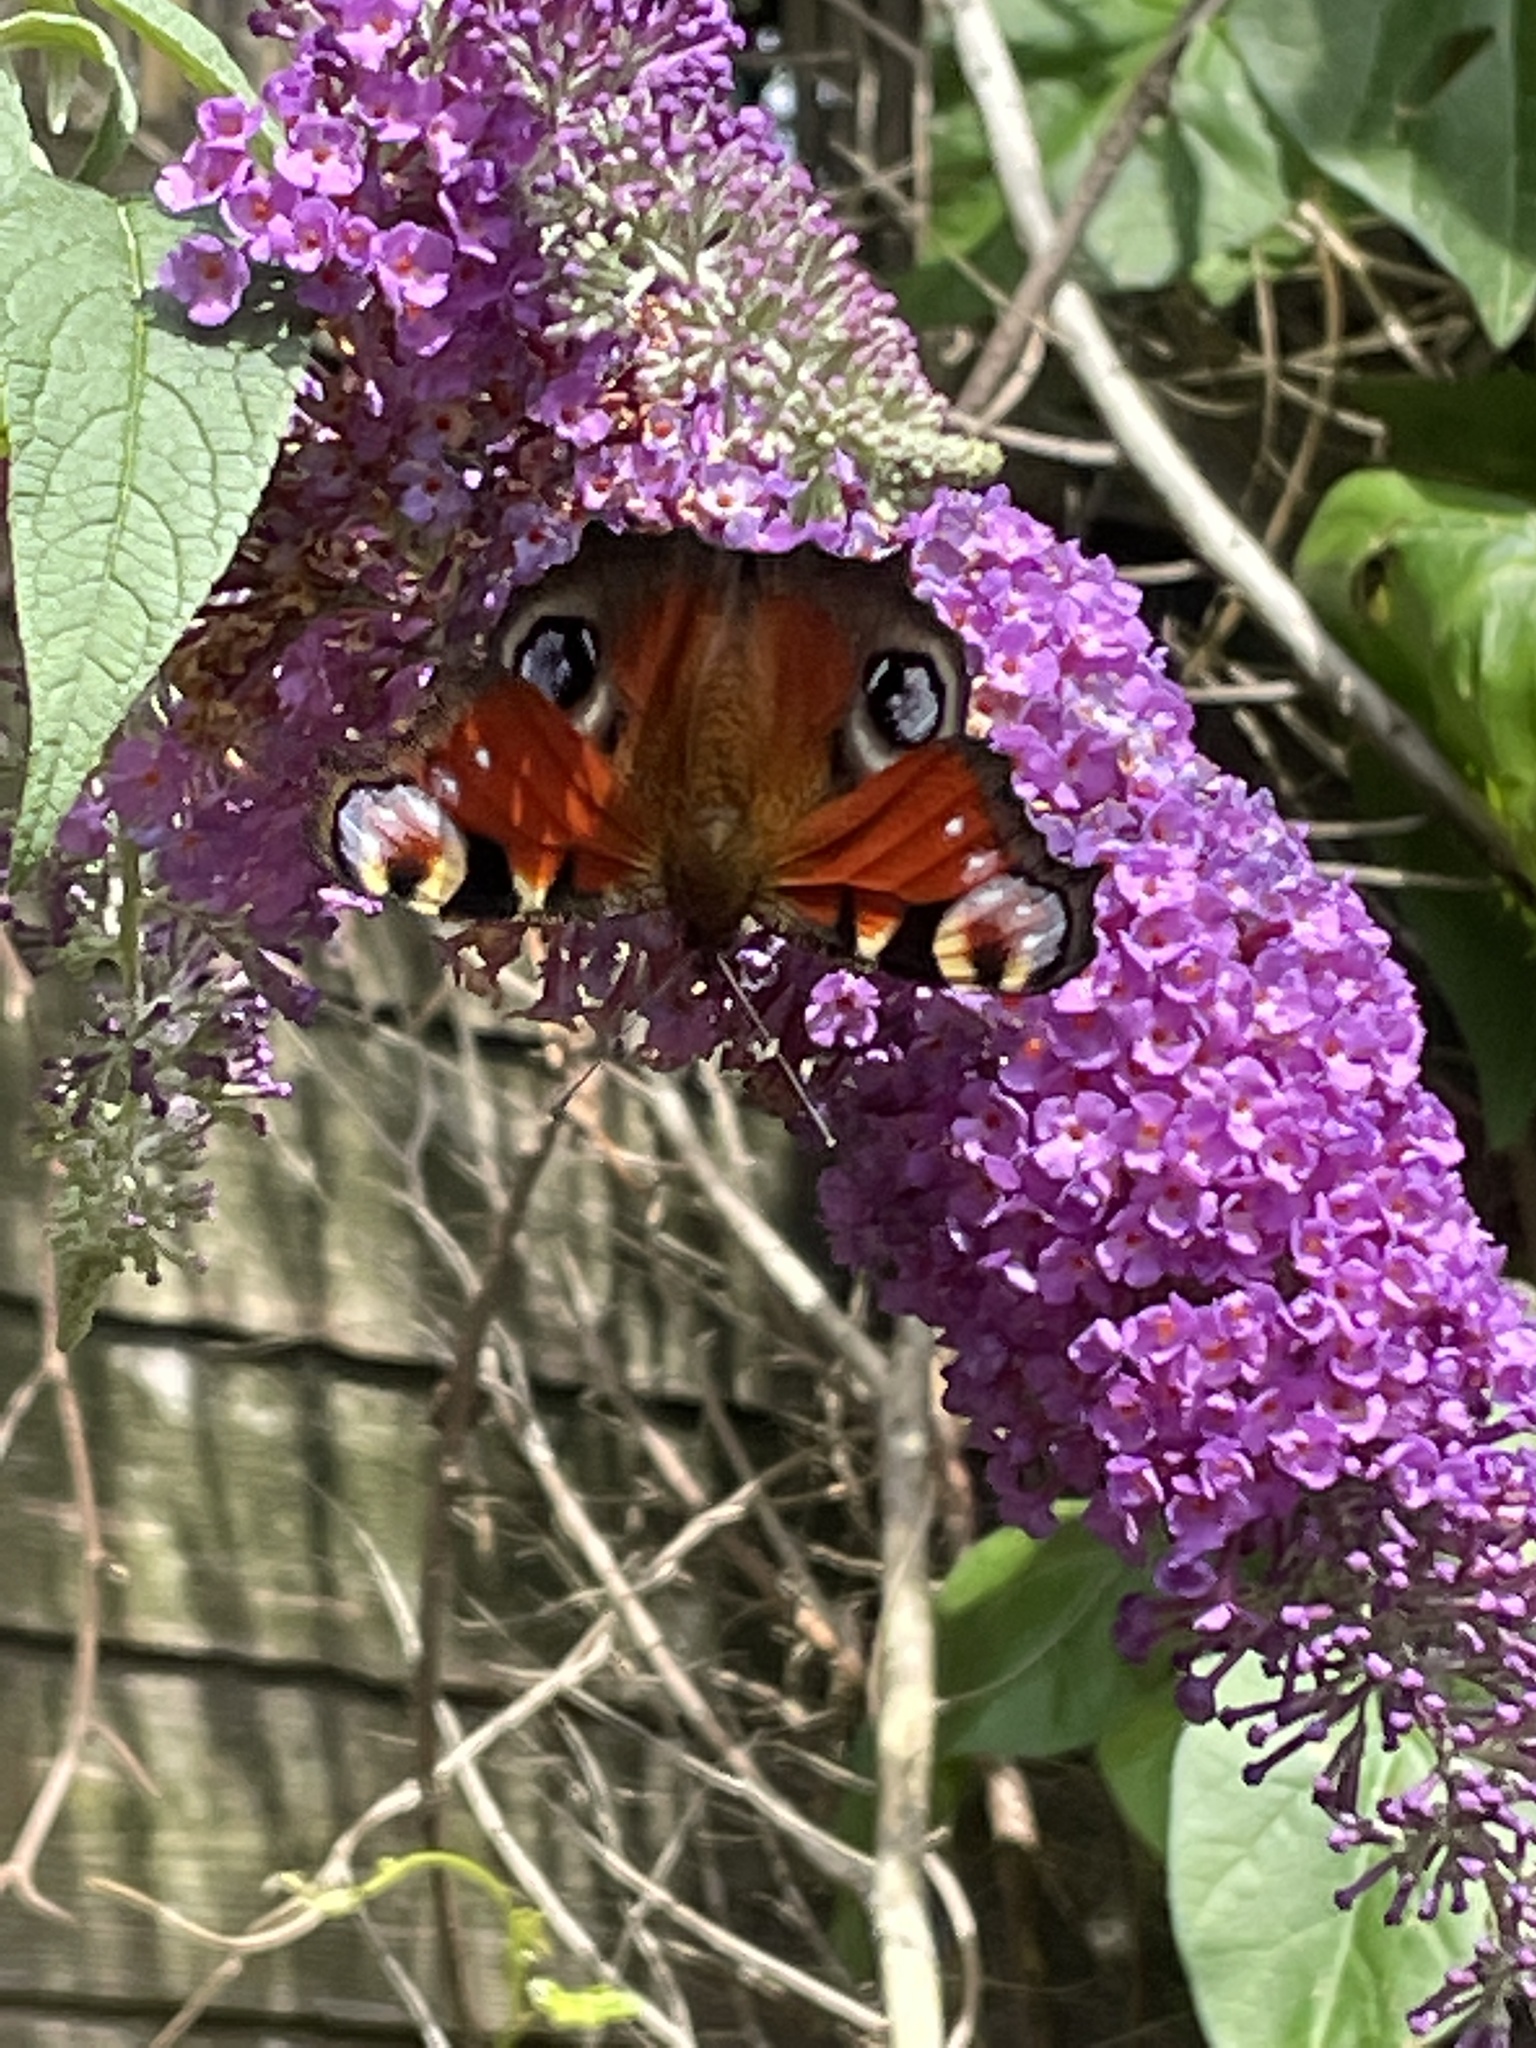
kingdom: Animalia
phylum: Arthropoda
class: Insecta
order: Lepidoptera
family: Nymphalidae
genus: Aglais
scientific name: Aglais io
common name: Peacock
